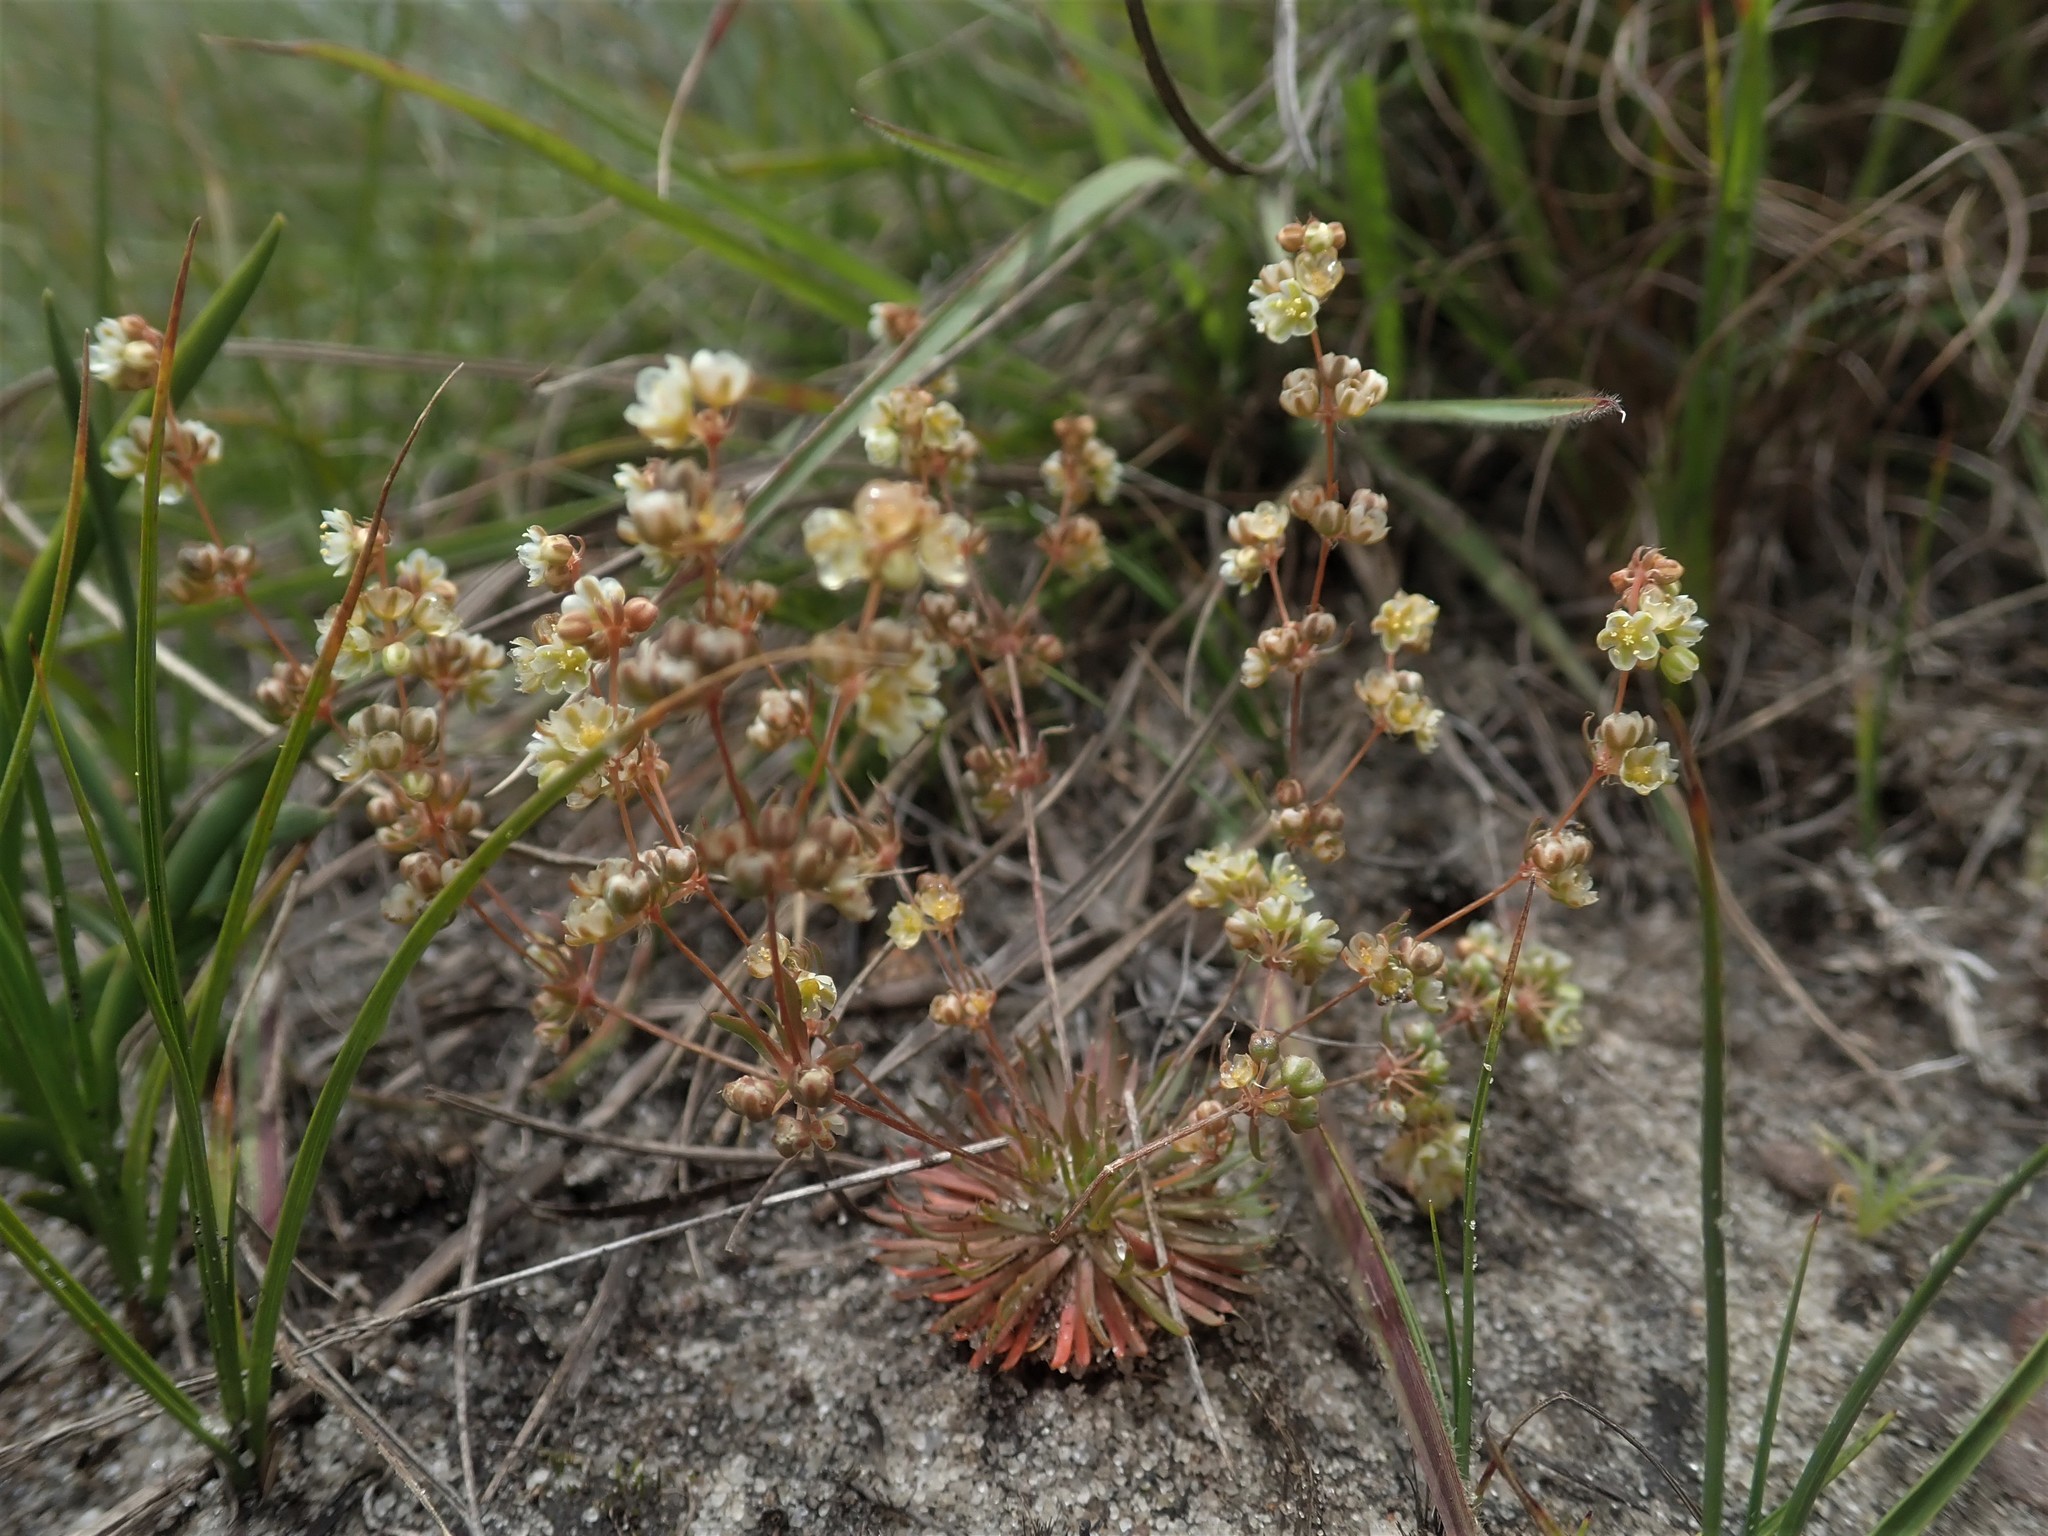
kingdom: Plantae
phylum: Tracheophyta
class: Magnoliopsida
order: Caryophyllales
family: Molluginaceae
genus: Psammotropha
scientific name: Psammotropha myriantha
